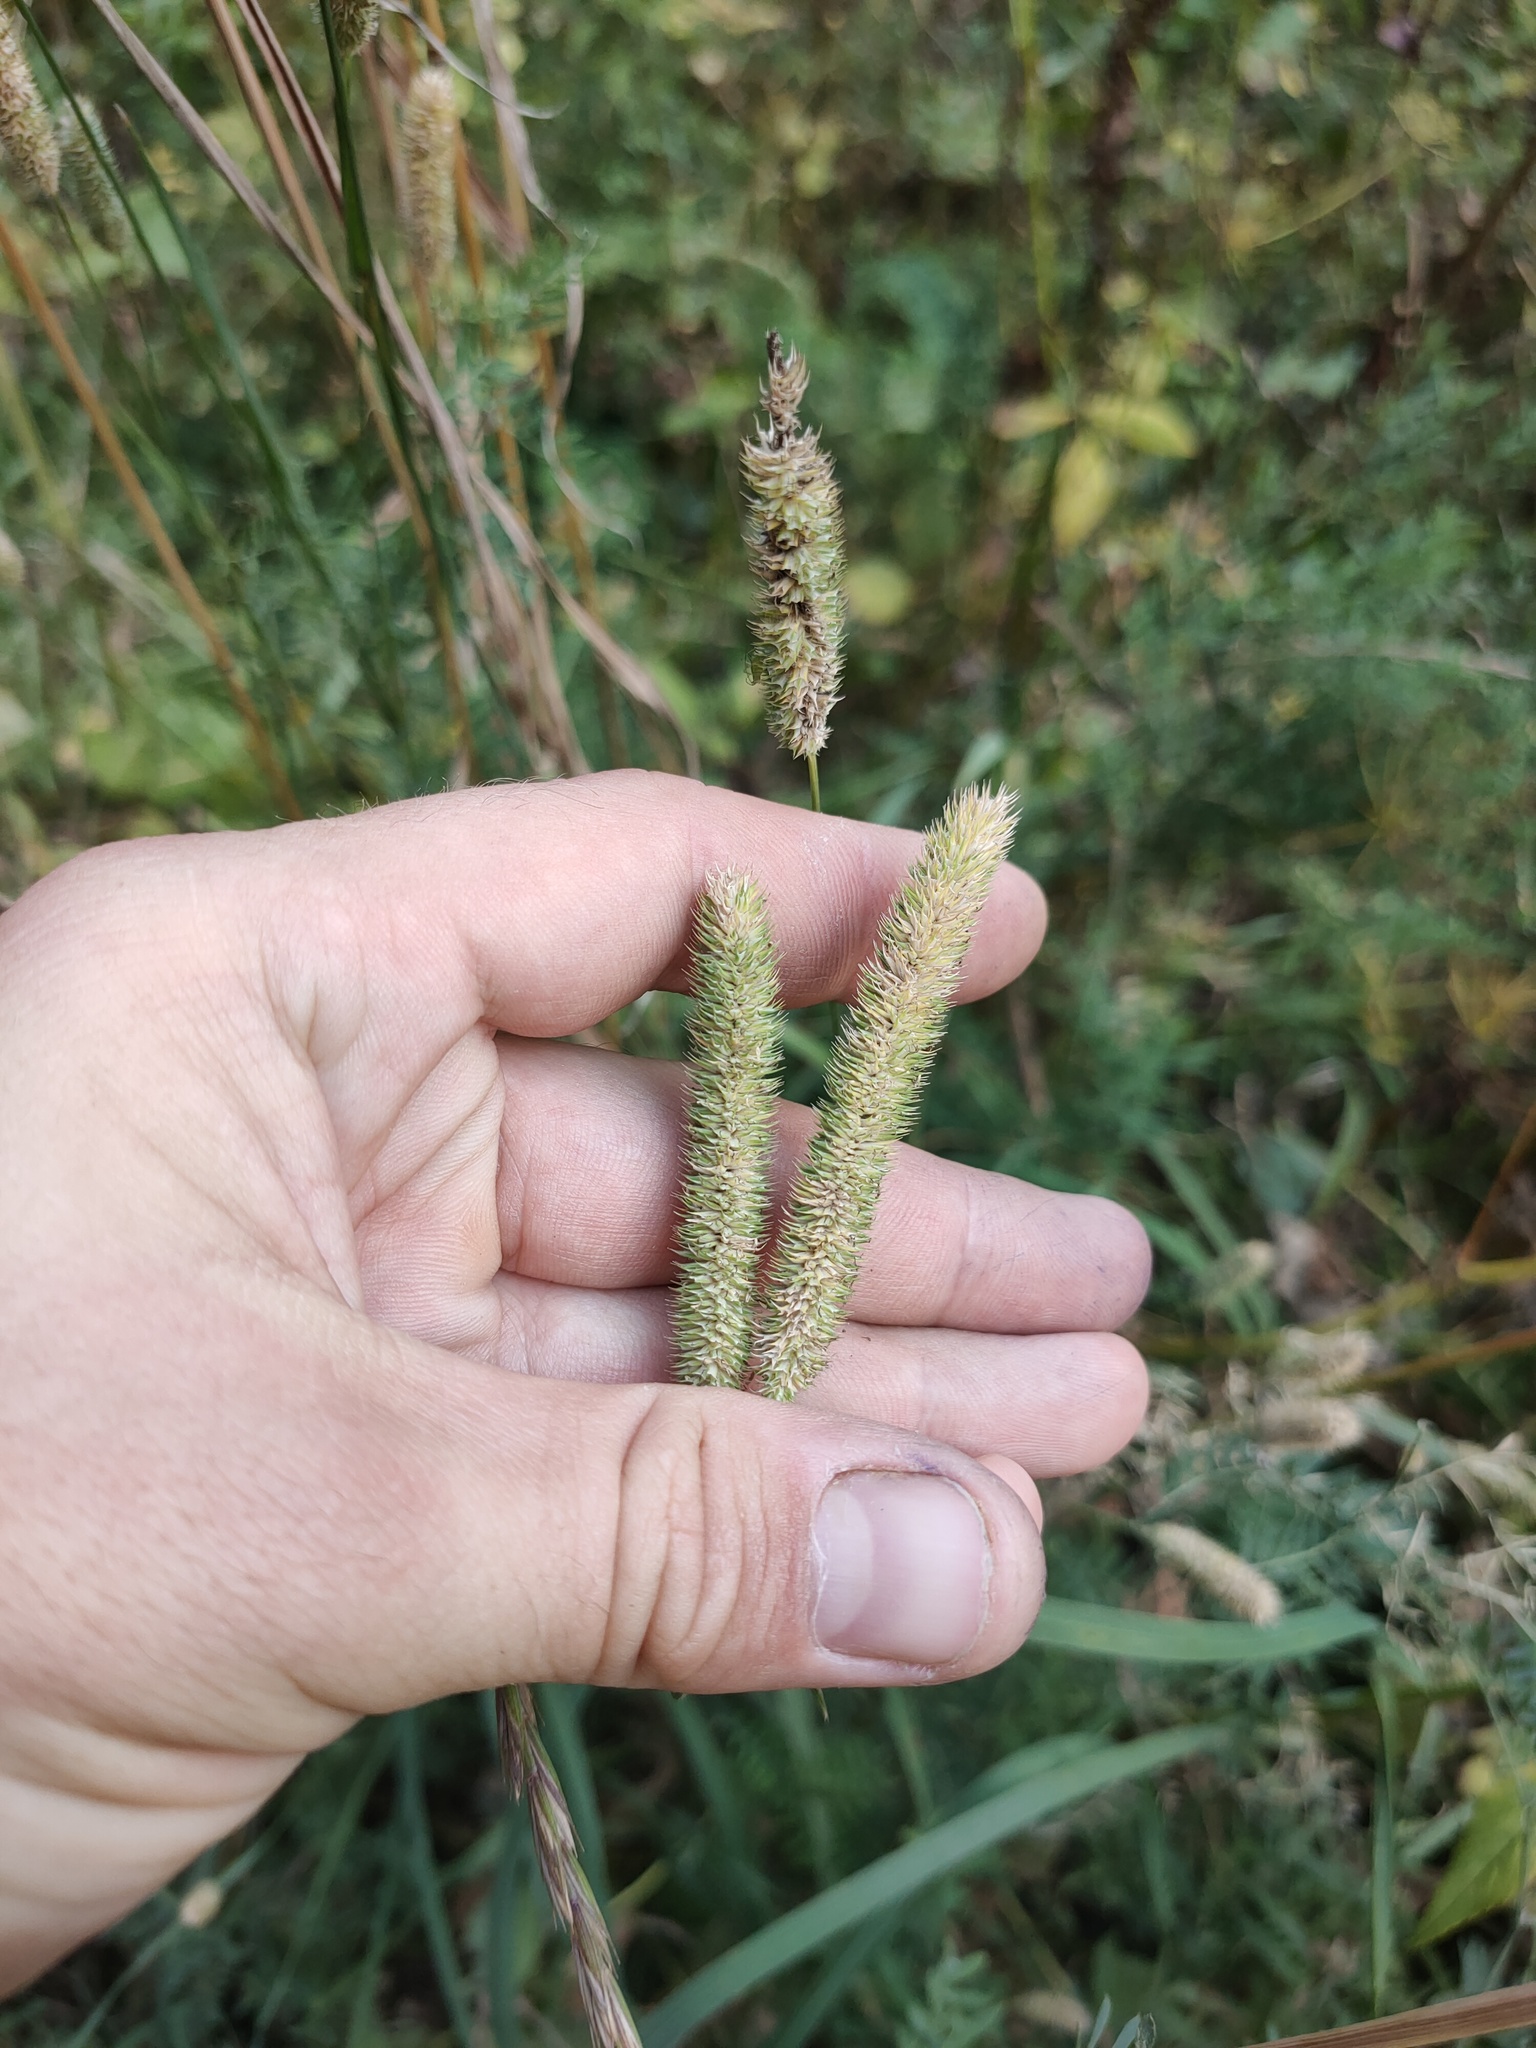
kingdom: Plantae
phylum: Tracheophyta
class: Liliopsida
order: Poales
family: Poaceae
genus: Phleum
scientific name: Phleum pratense
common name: Timothy grass
